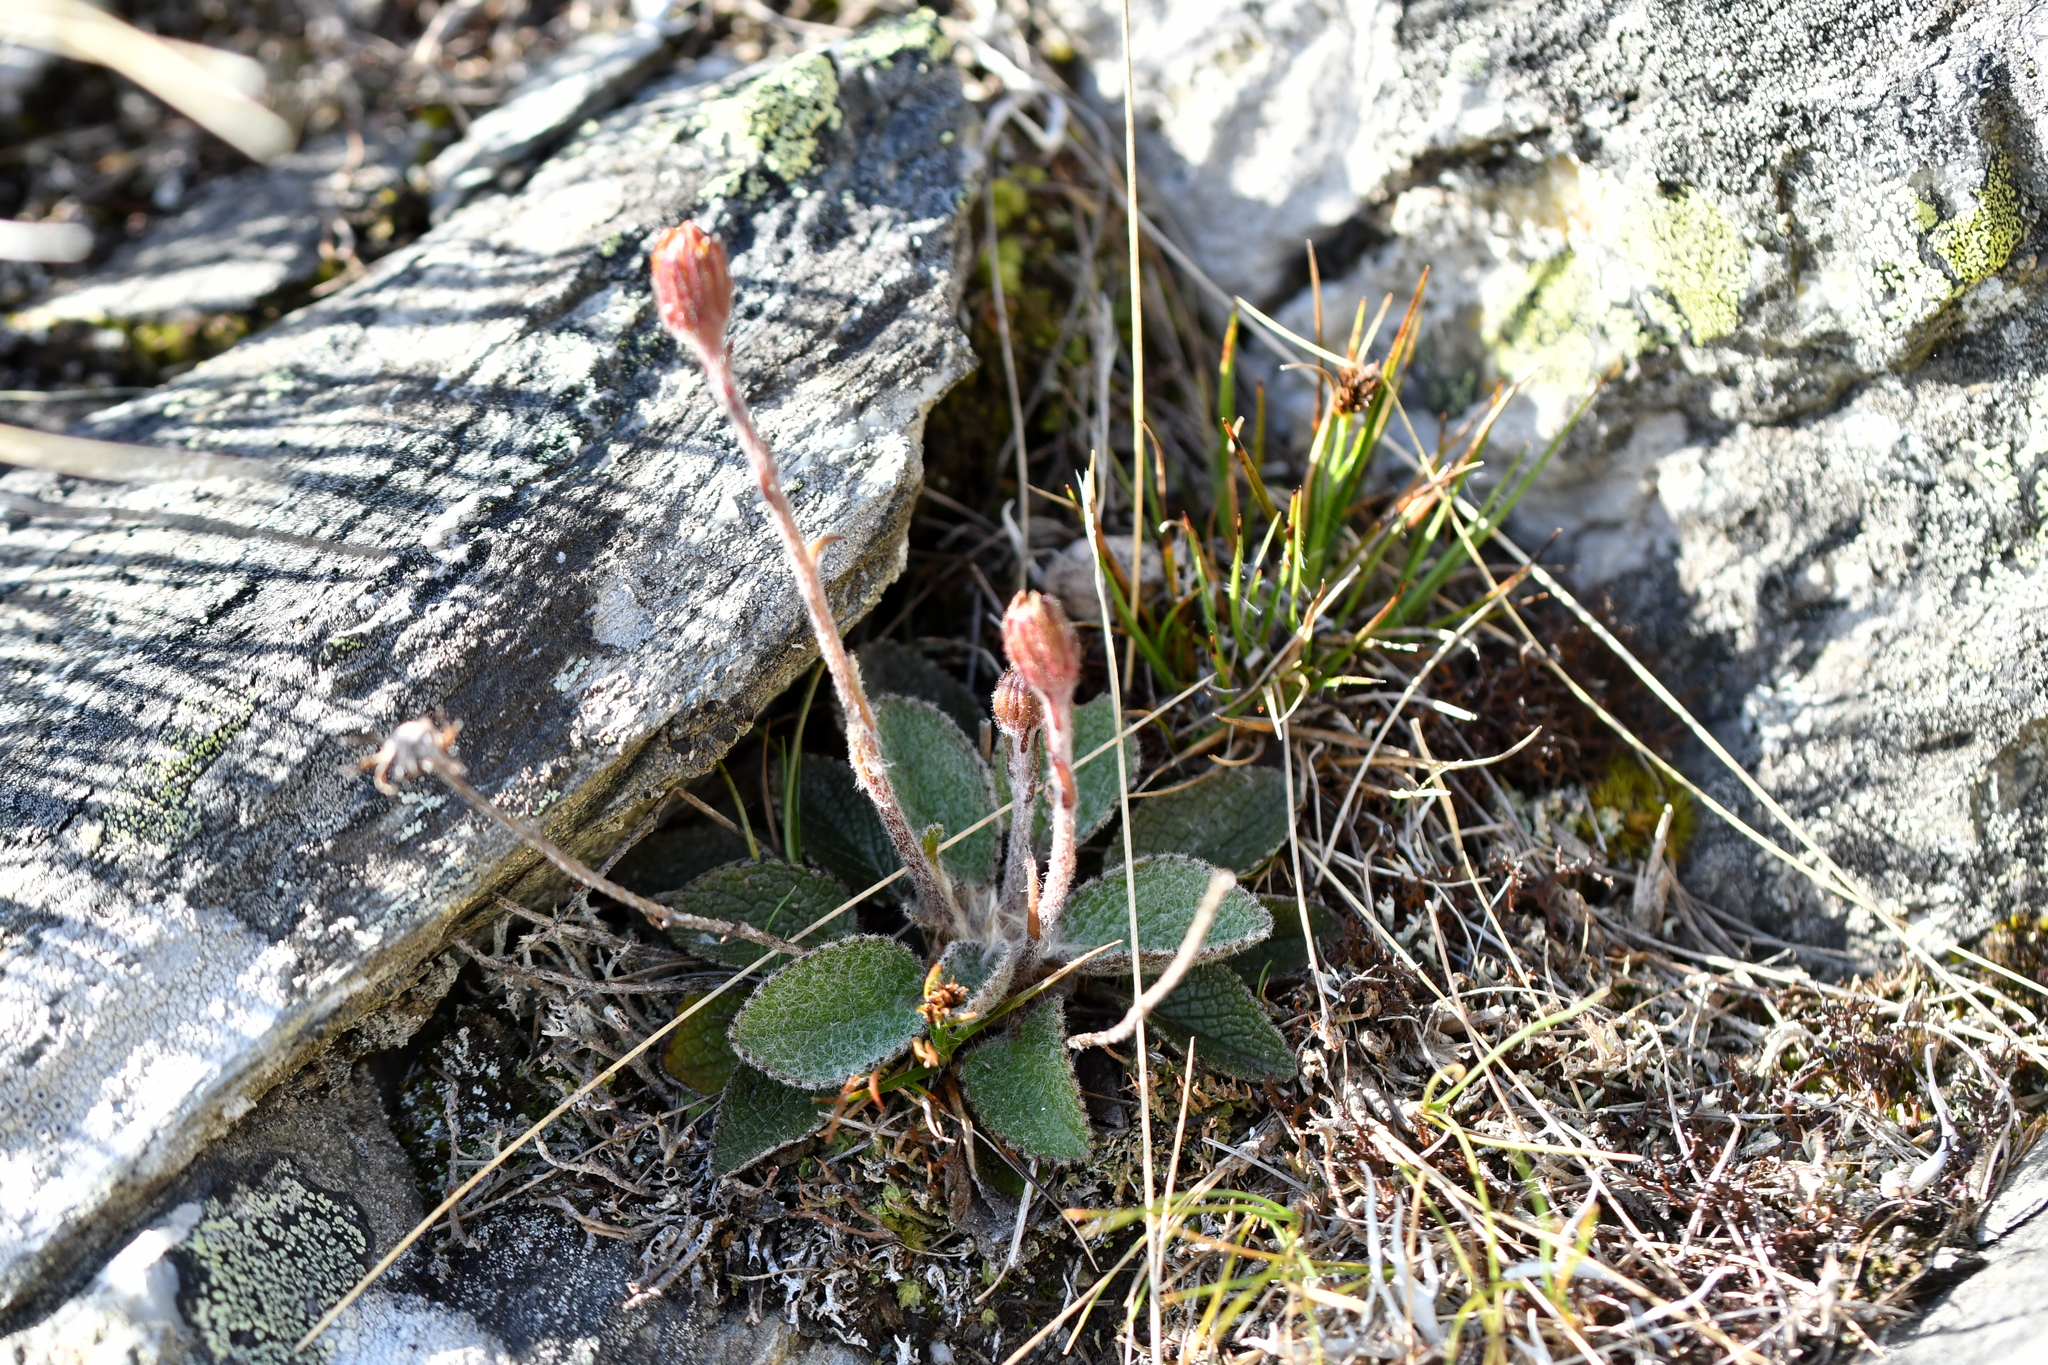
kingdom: Plantae
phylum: Tracheophyta
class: Magnoliopsida
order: Asterales
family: Asteraceae
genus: Brachyglottis
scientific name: Brachyglottis bellidioides
